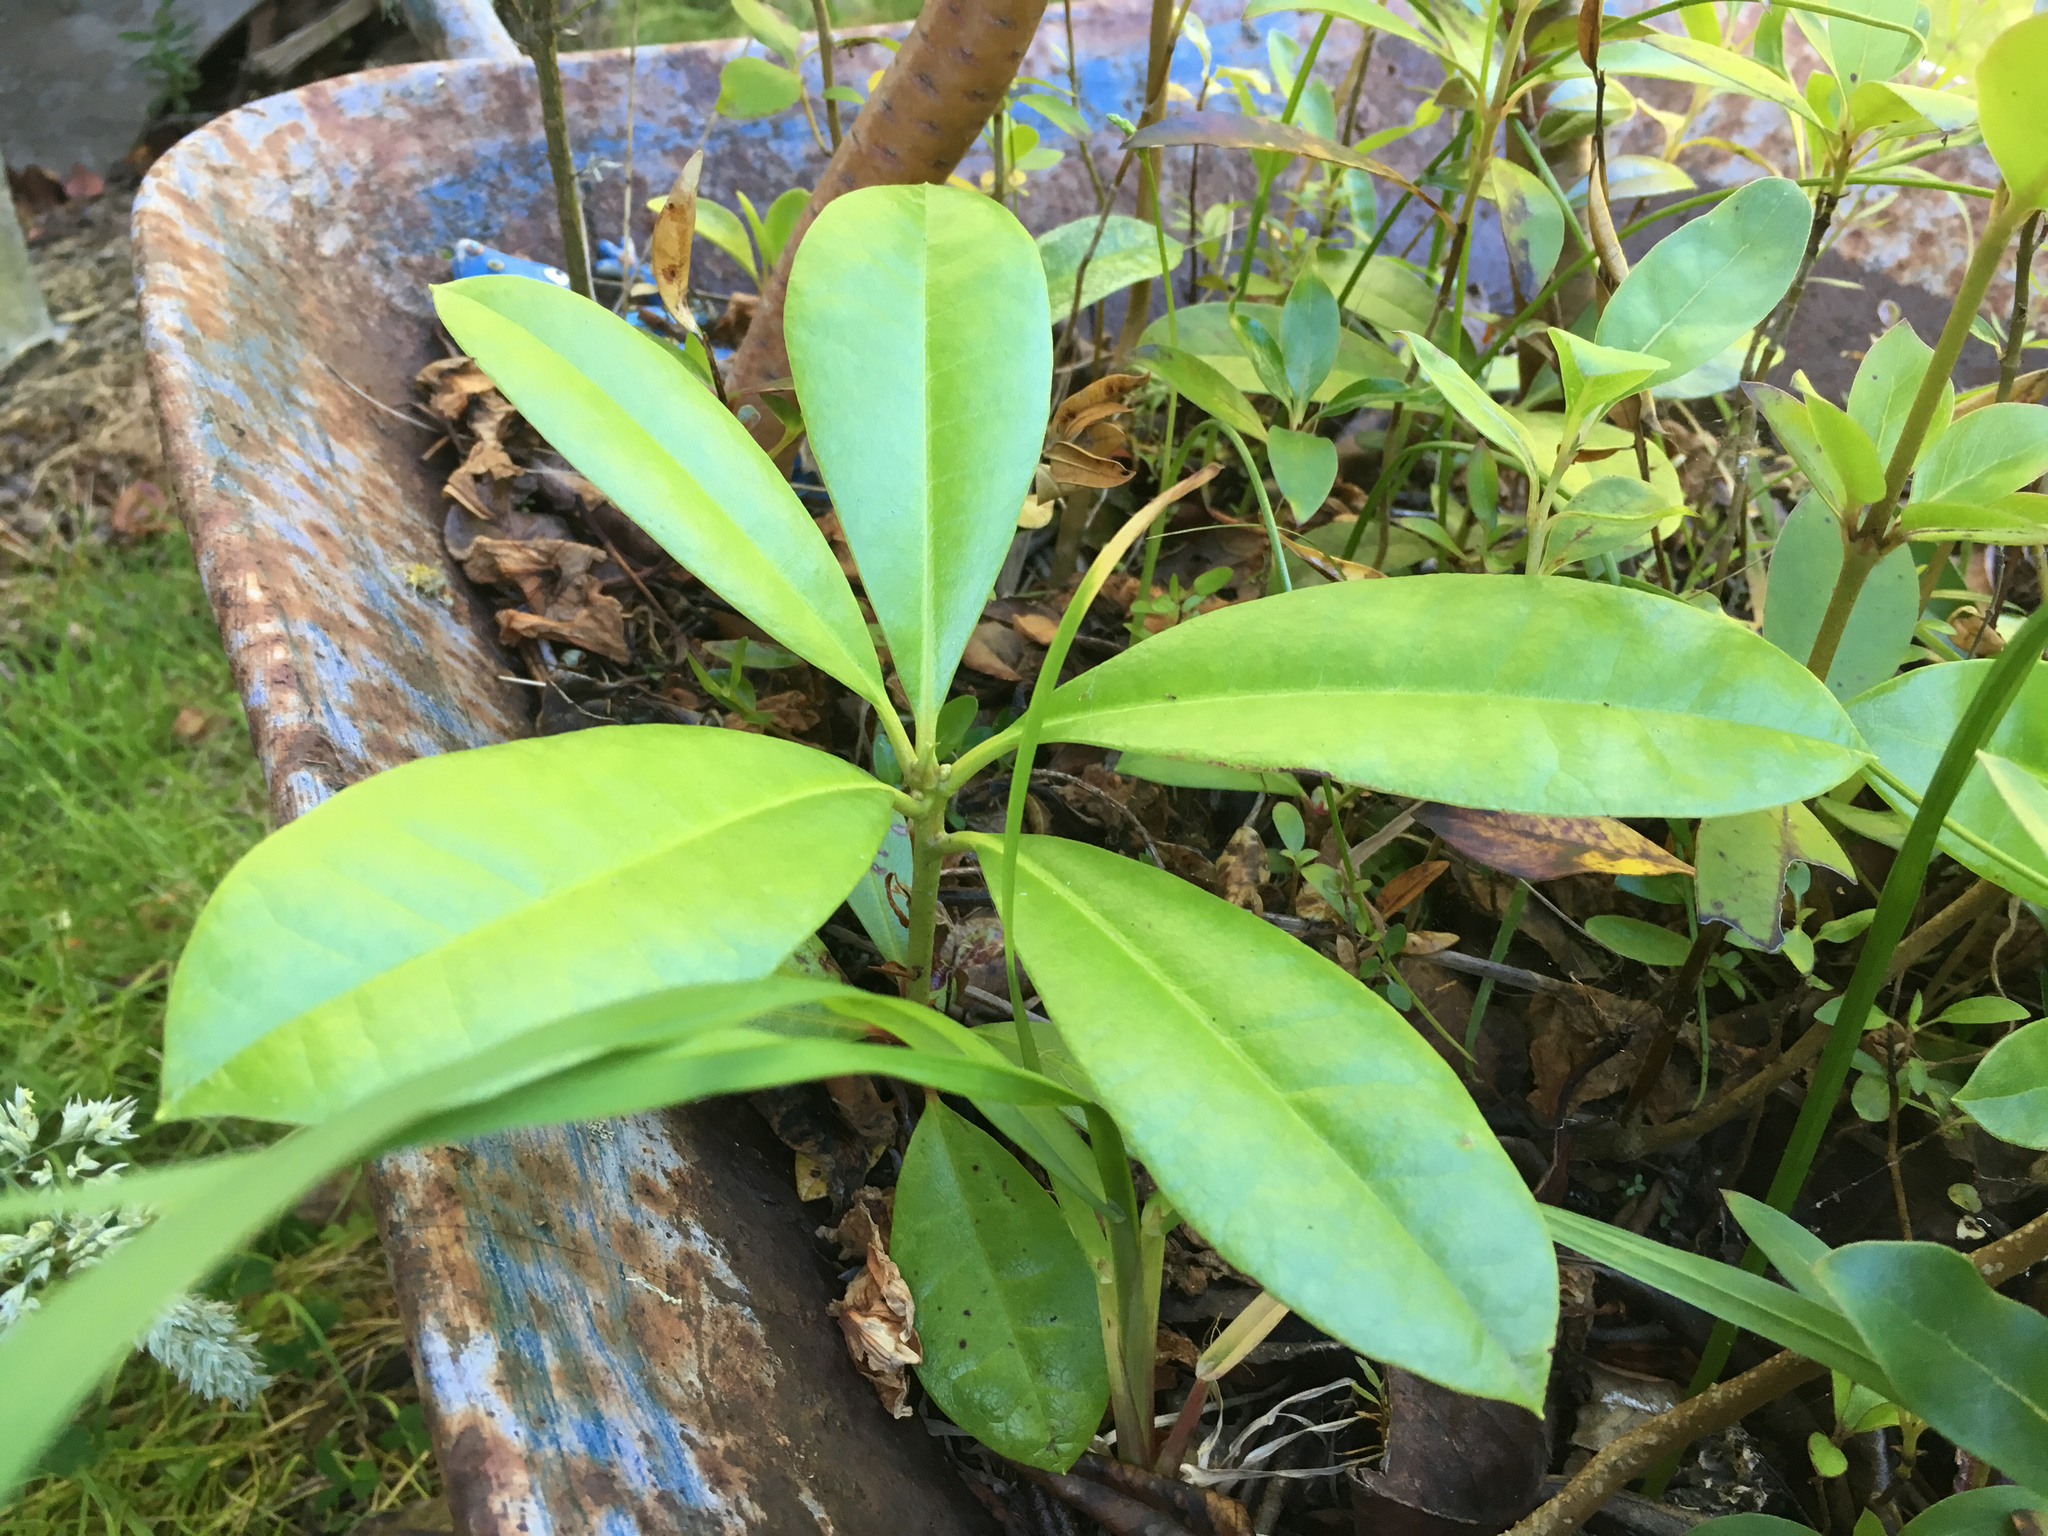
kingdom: Plantae
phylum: Tracheophyta
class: Magnoliopsida
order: Cucurbitales
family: Corynocarpaceae
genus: Corynocarpus
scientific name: Corynocarpus laevigatus
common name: New zealand laurel
